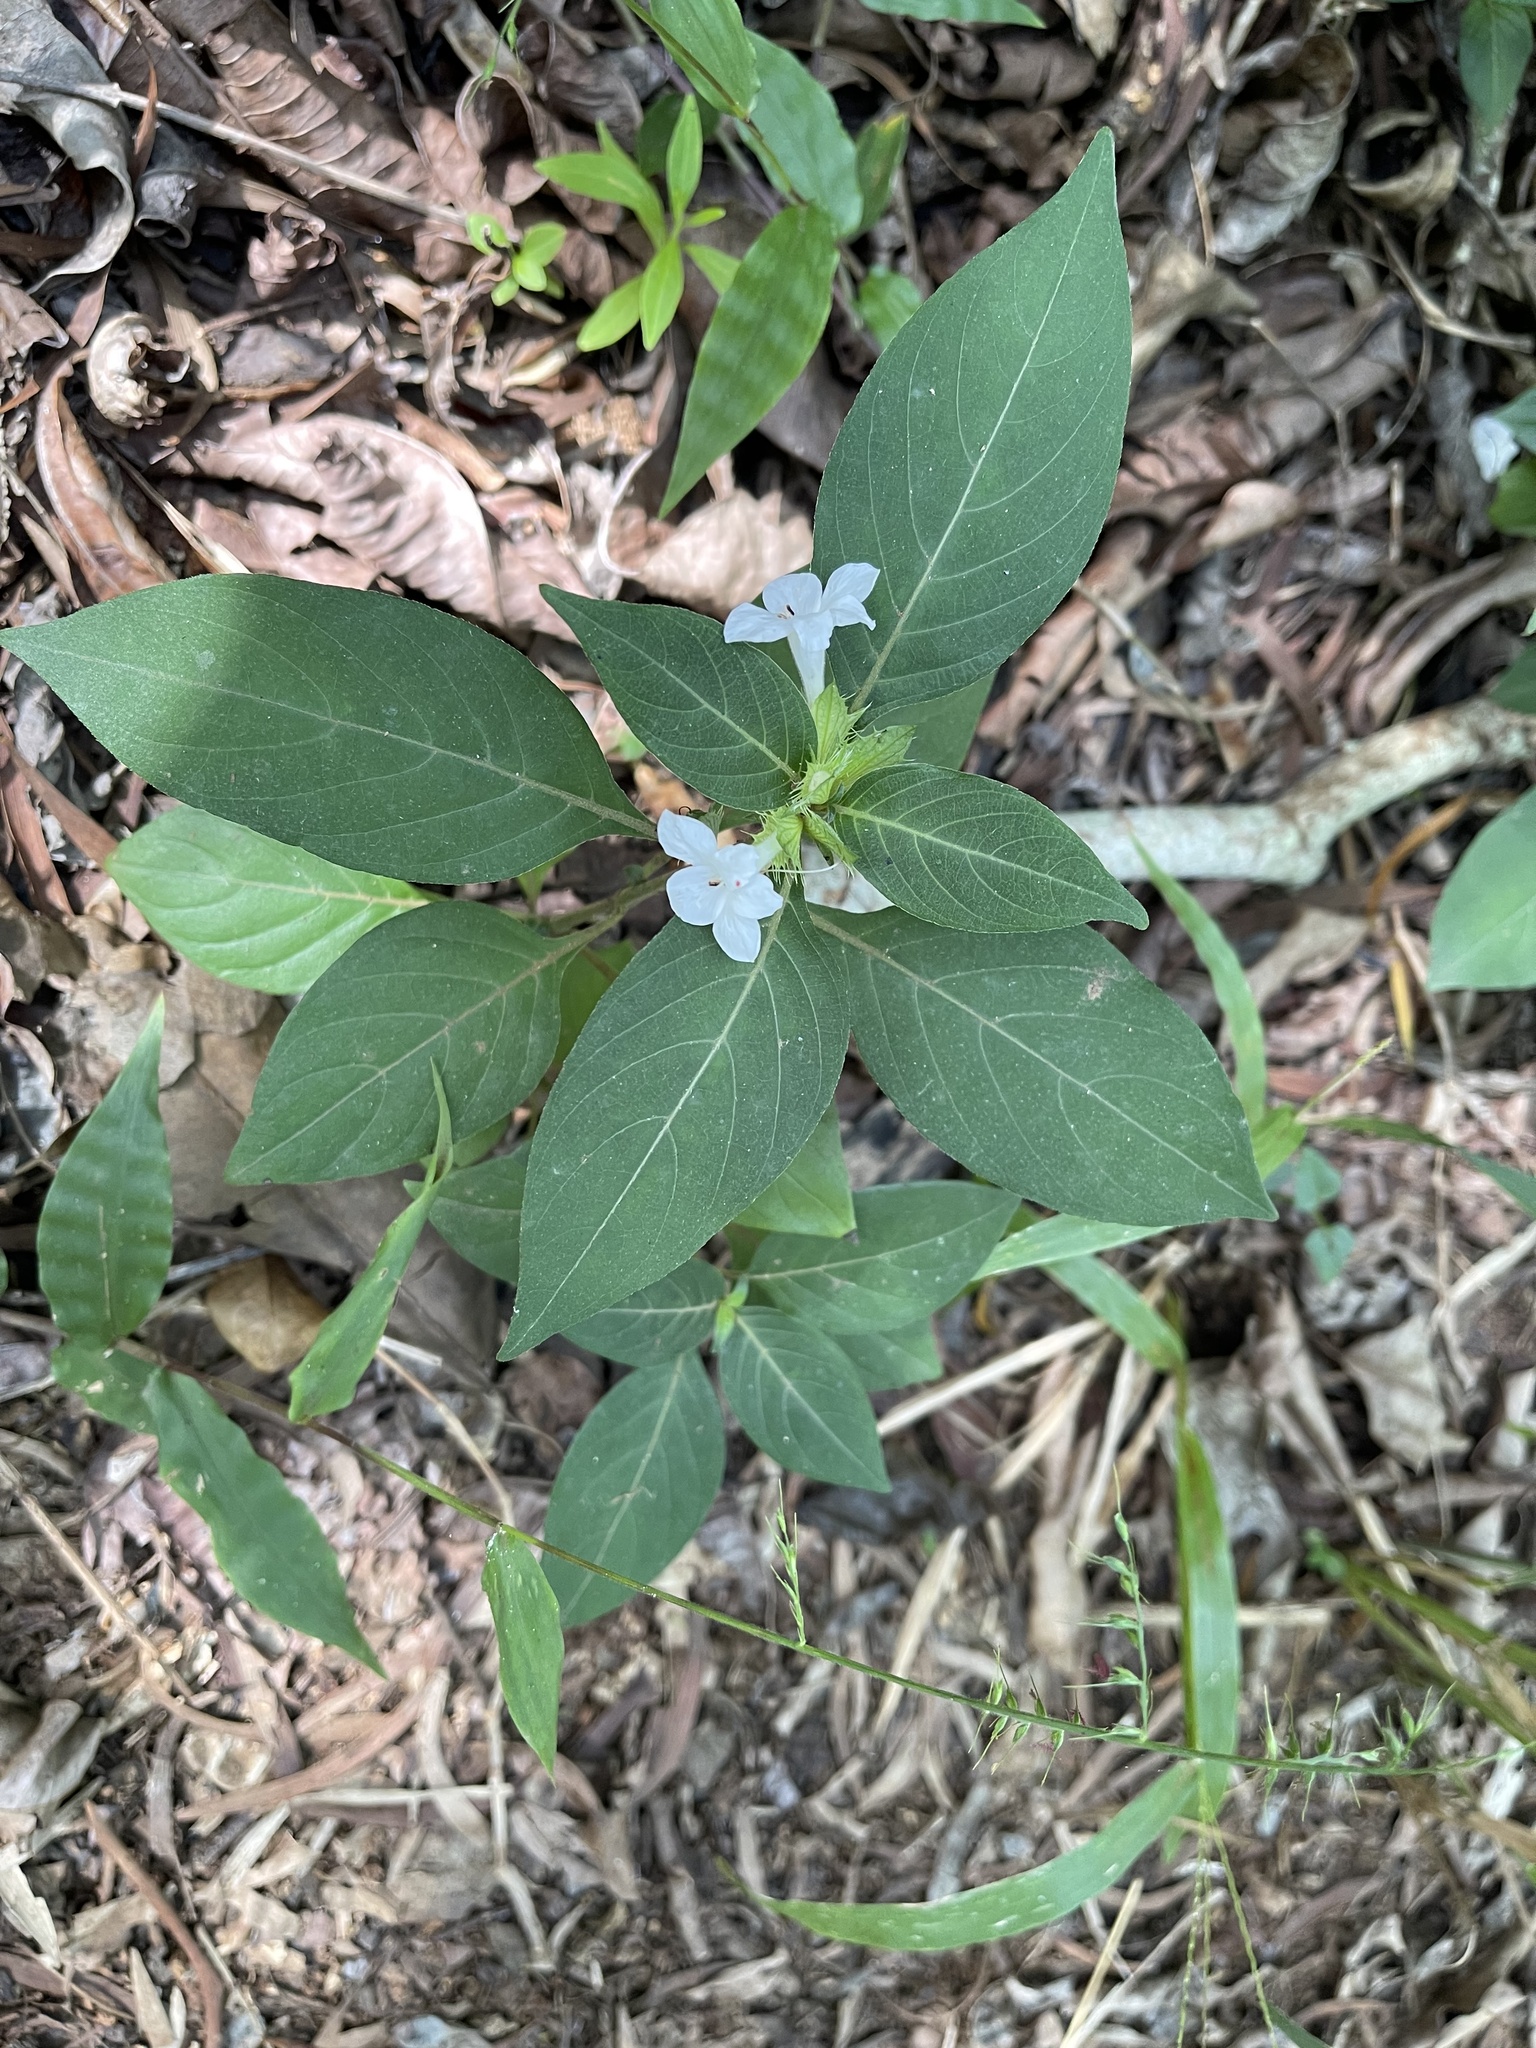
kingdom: Plantae
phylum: Tracheophyta
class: Magnoliopsida
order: Lamiales
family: Acanthaceae
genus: Barleria
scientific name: Barleria cristata
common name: Crested philippine violet
